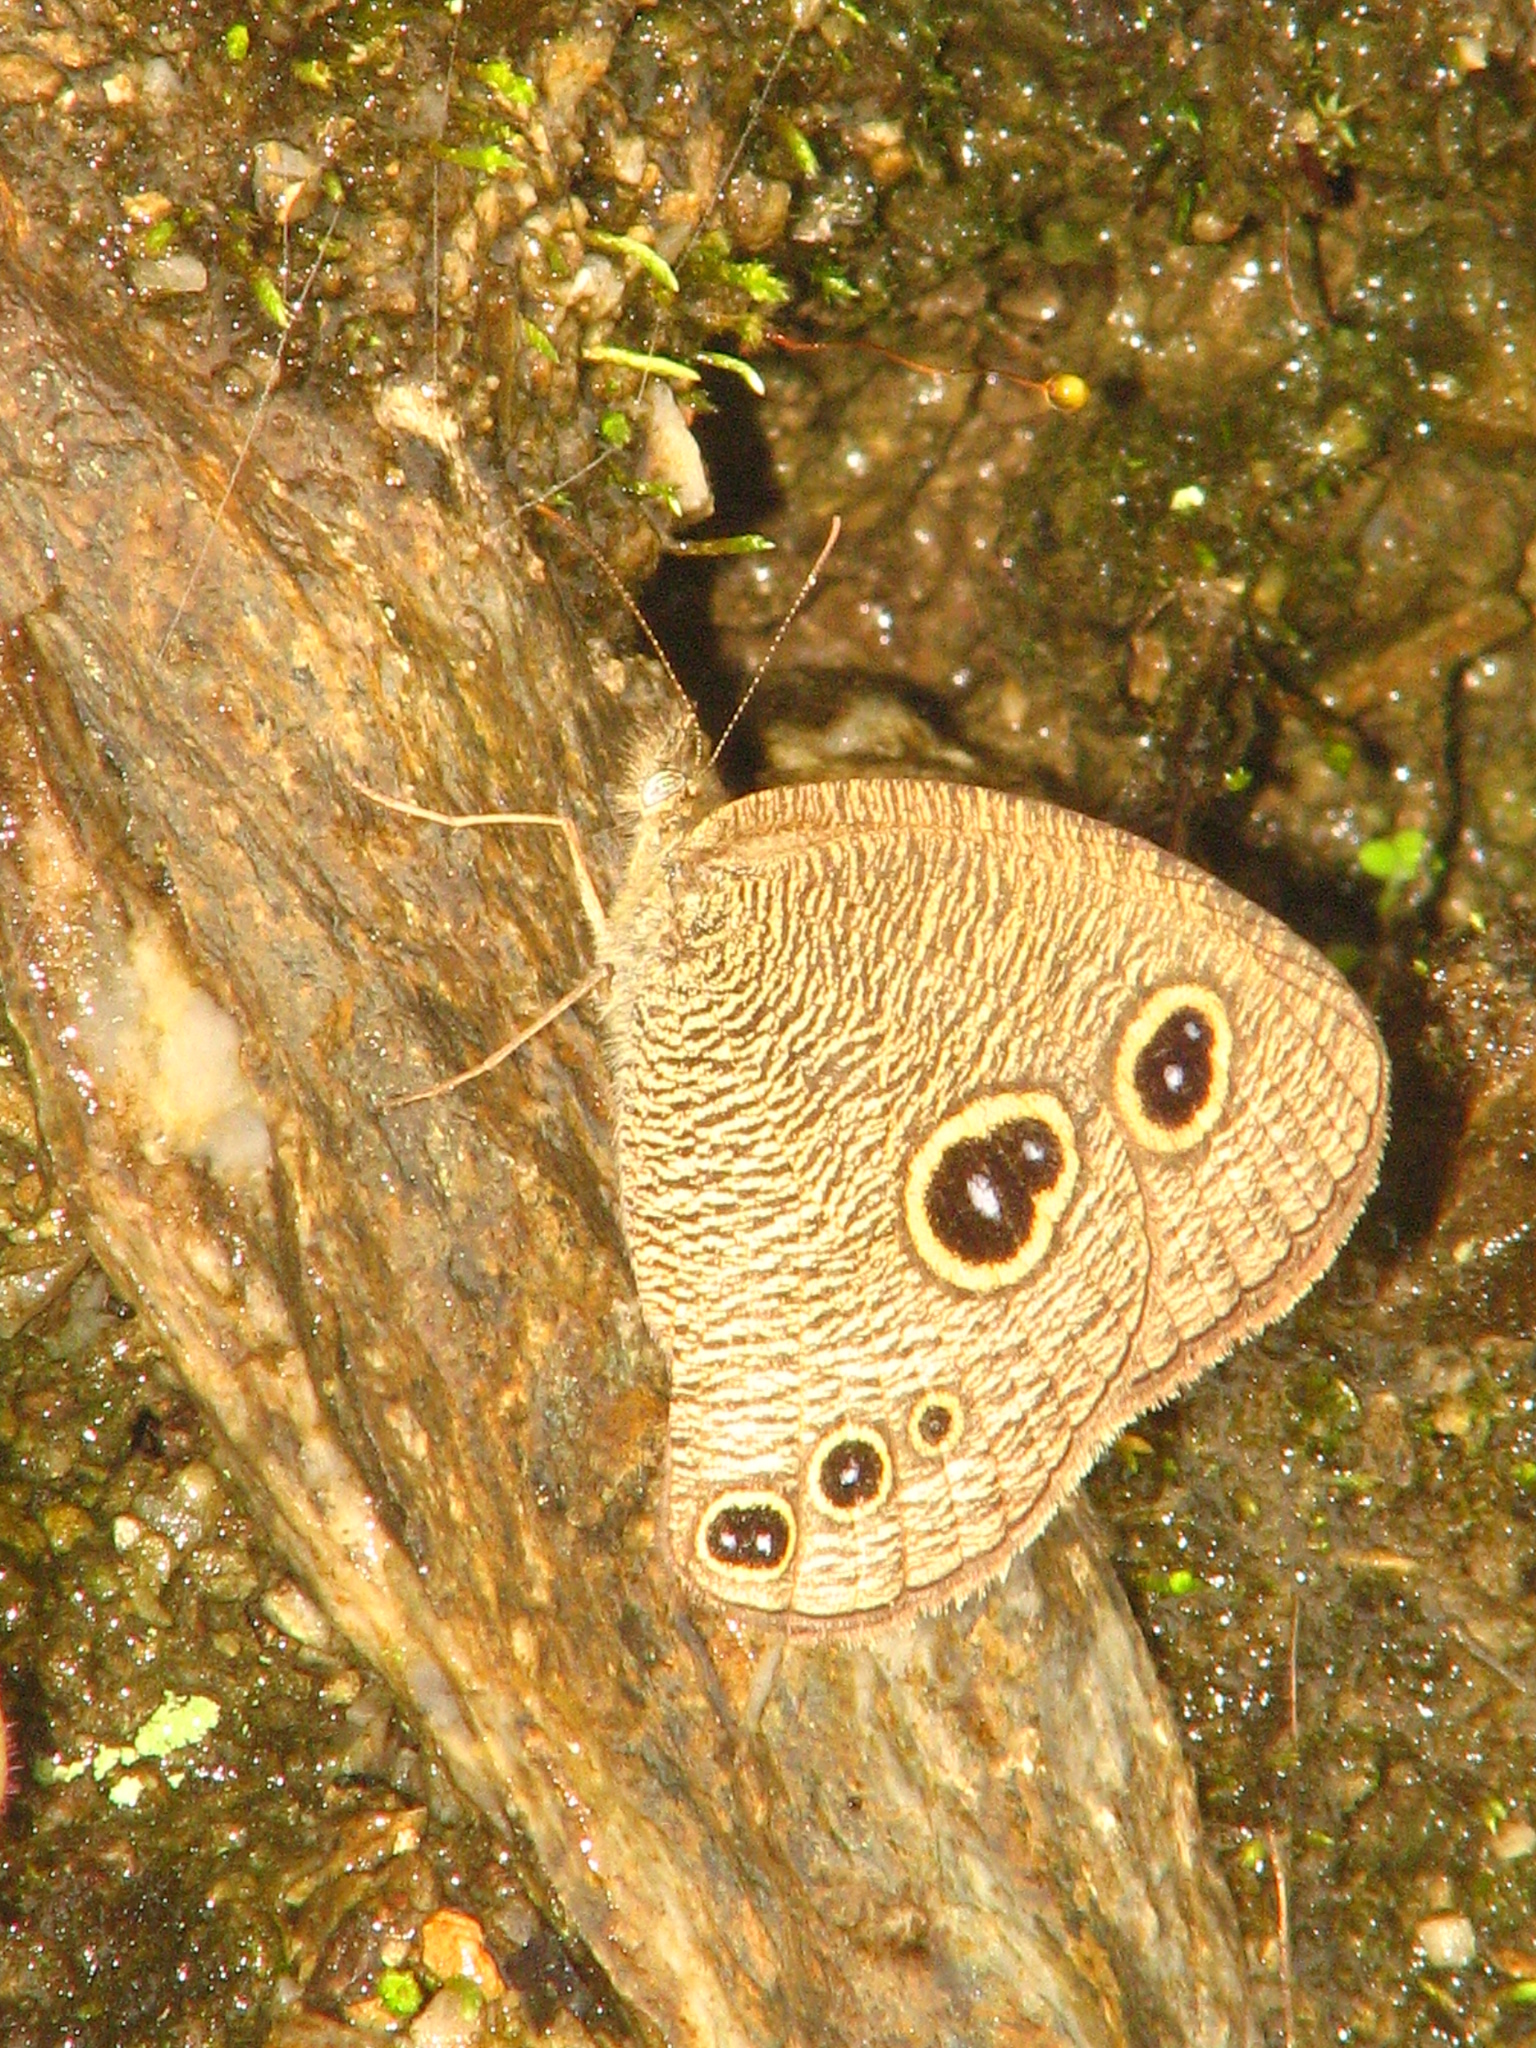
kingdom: Animalia
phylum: Arthropoda
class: Insecta
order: Lepidoptera
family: Nymphalidae
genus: Ypthima
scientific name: Ypthima nikaea
